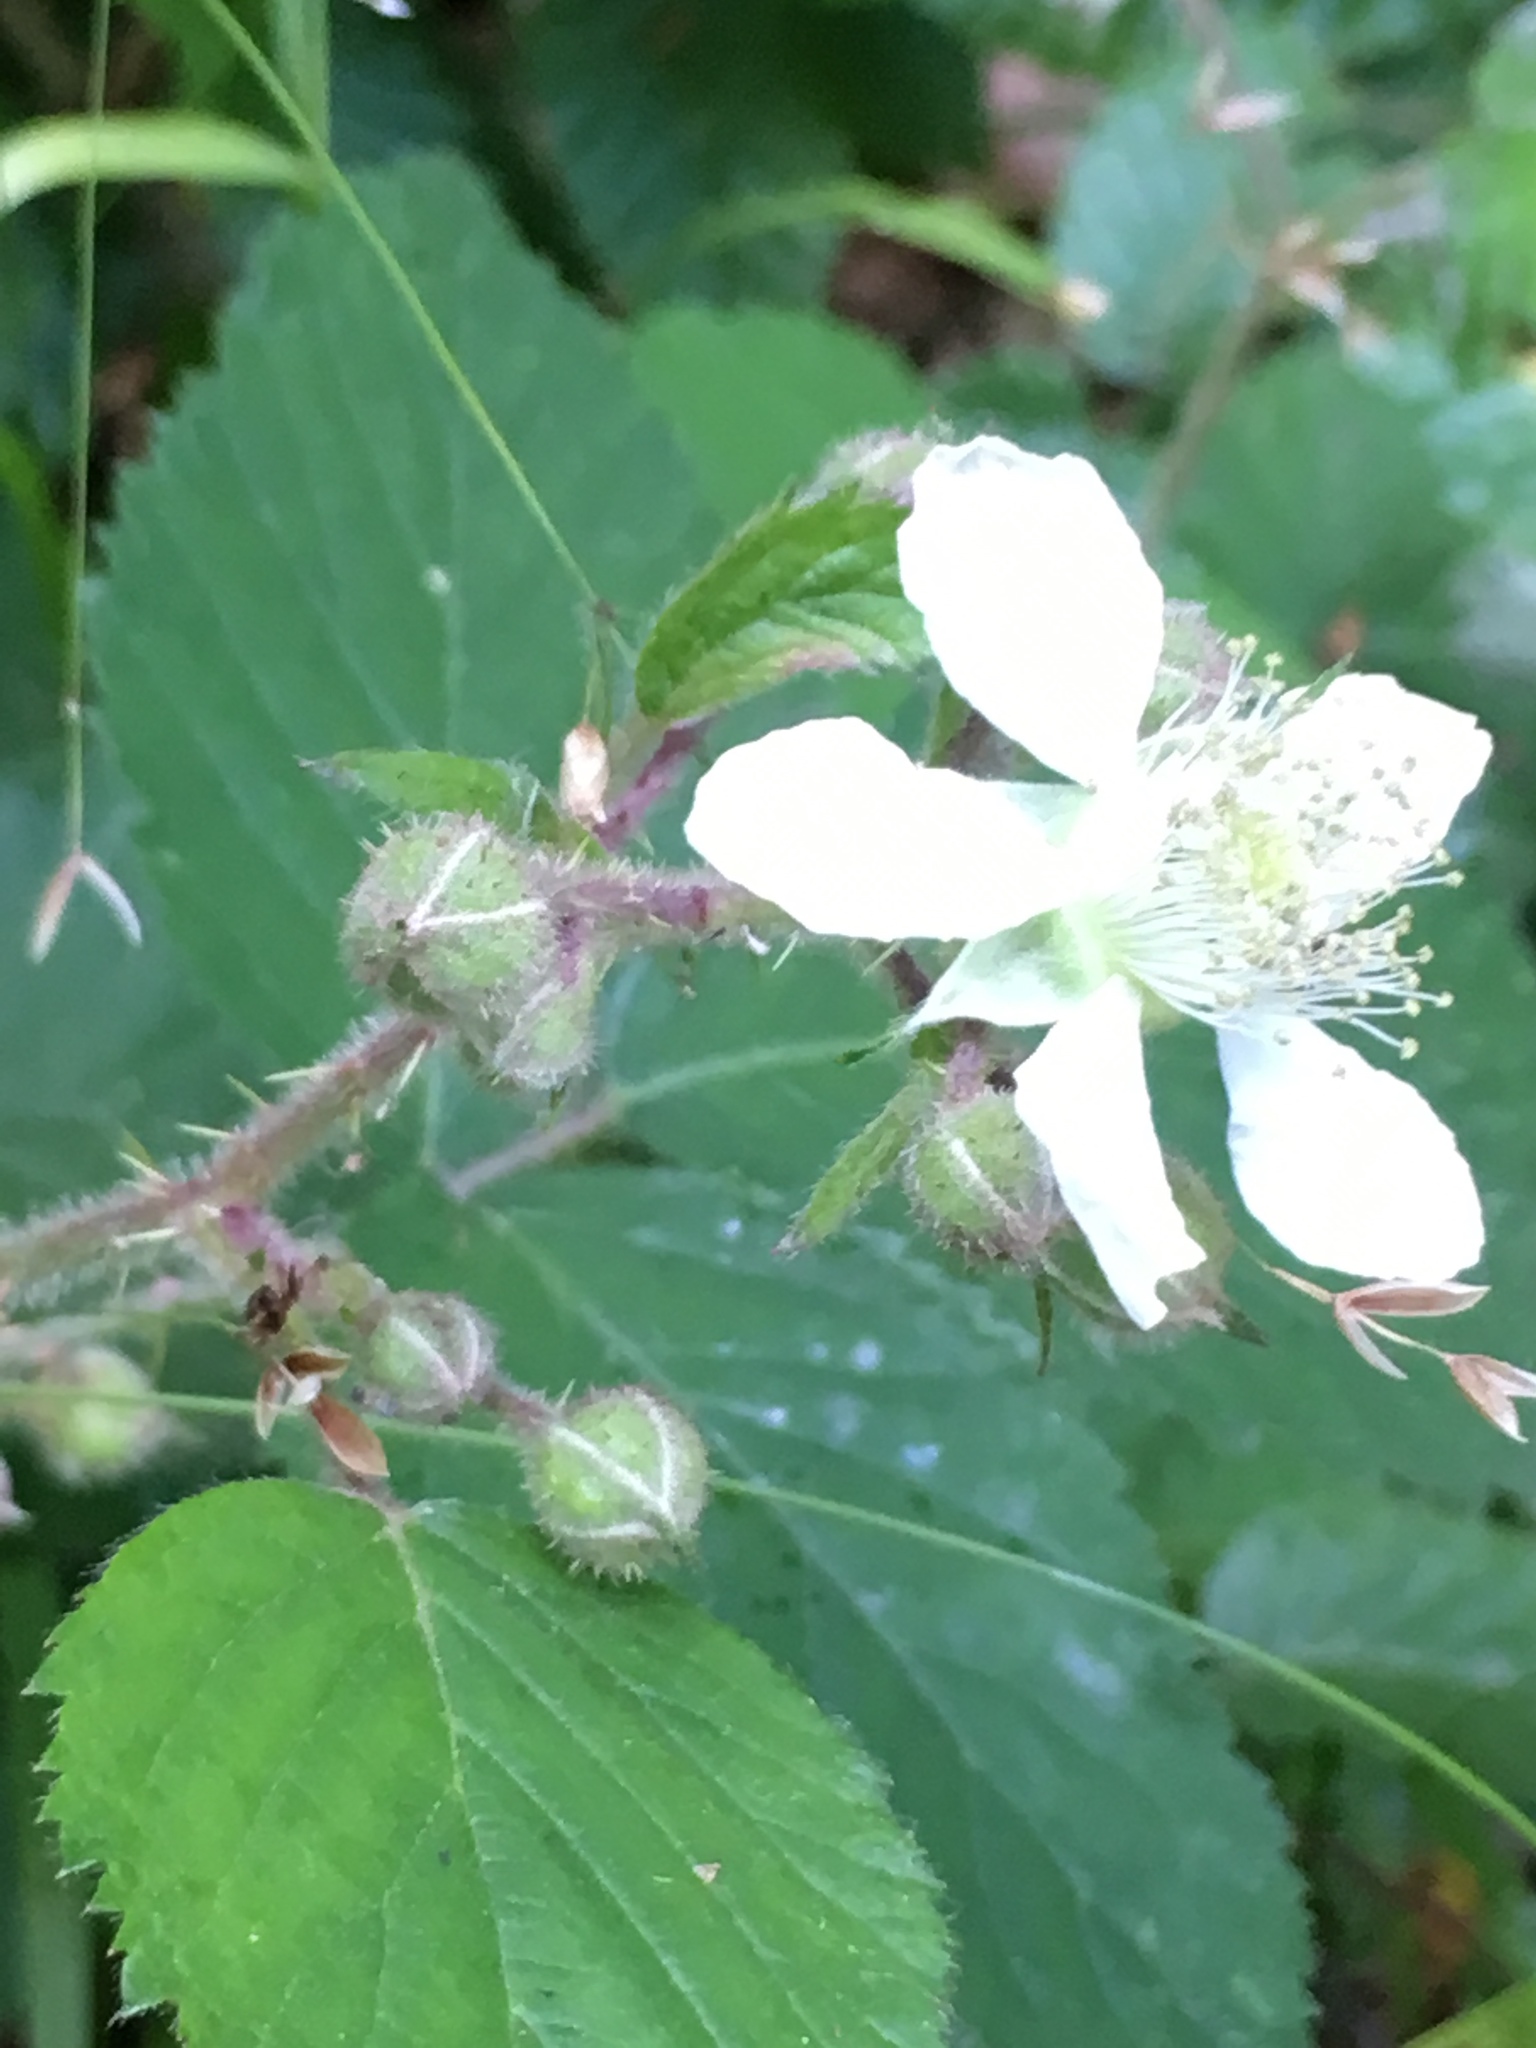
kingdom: Plantae
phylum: Tracheophyta
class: Magnoliopsida
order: Rosales
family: Rosaceae
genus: Rubus
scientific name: Rubus caesius
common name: Dewberry
